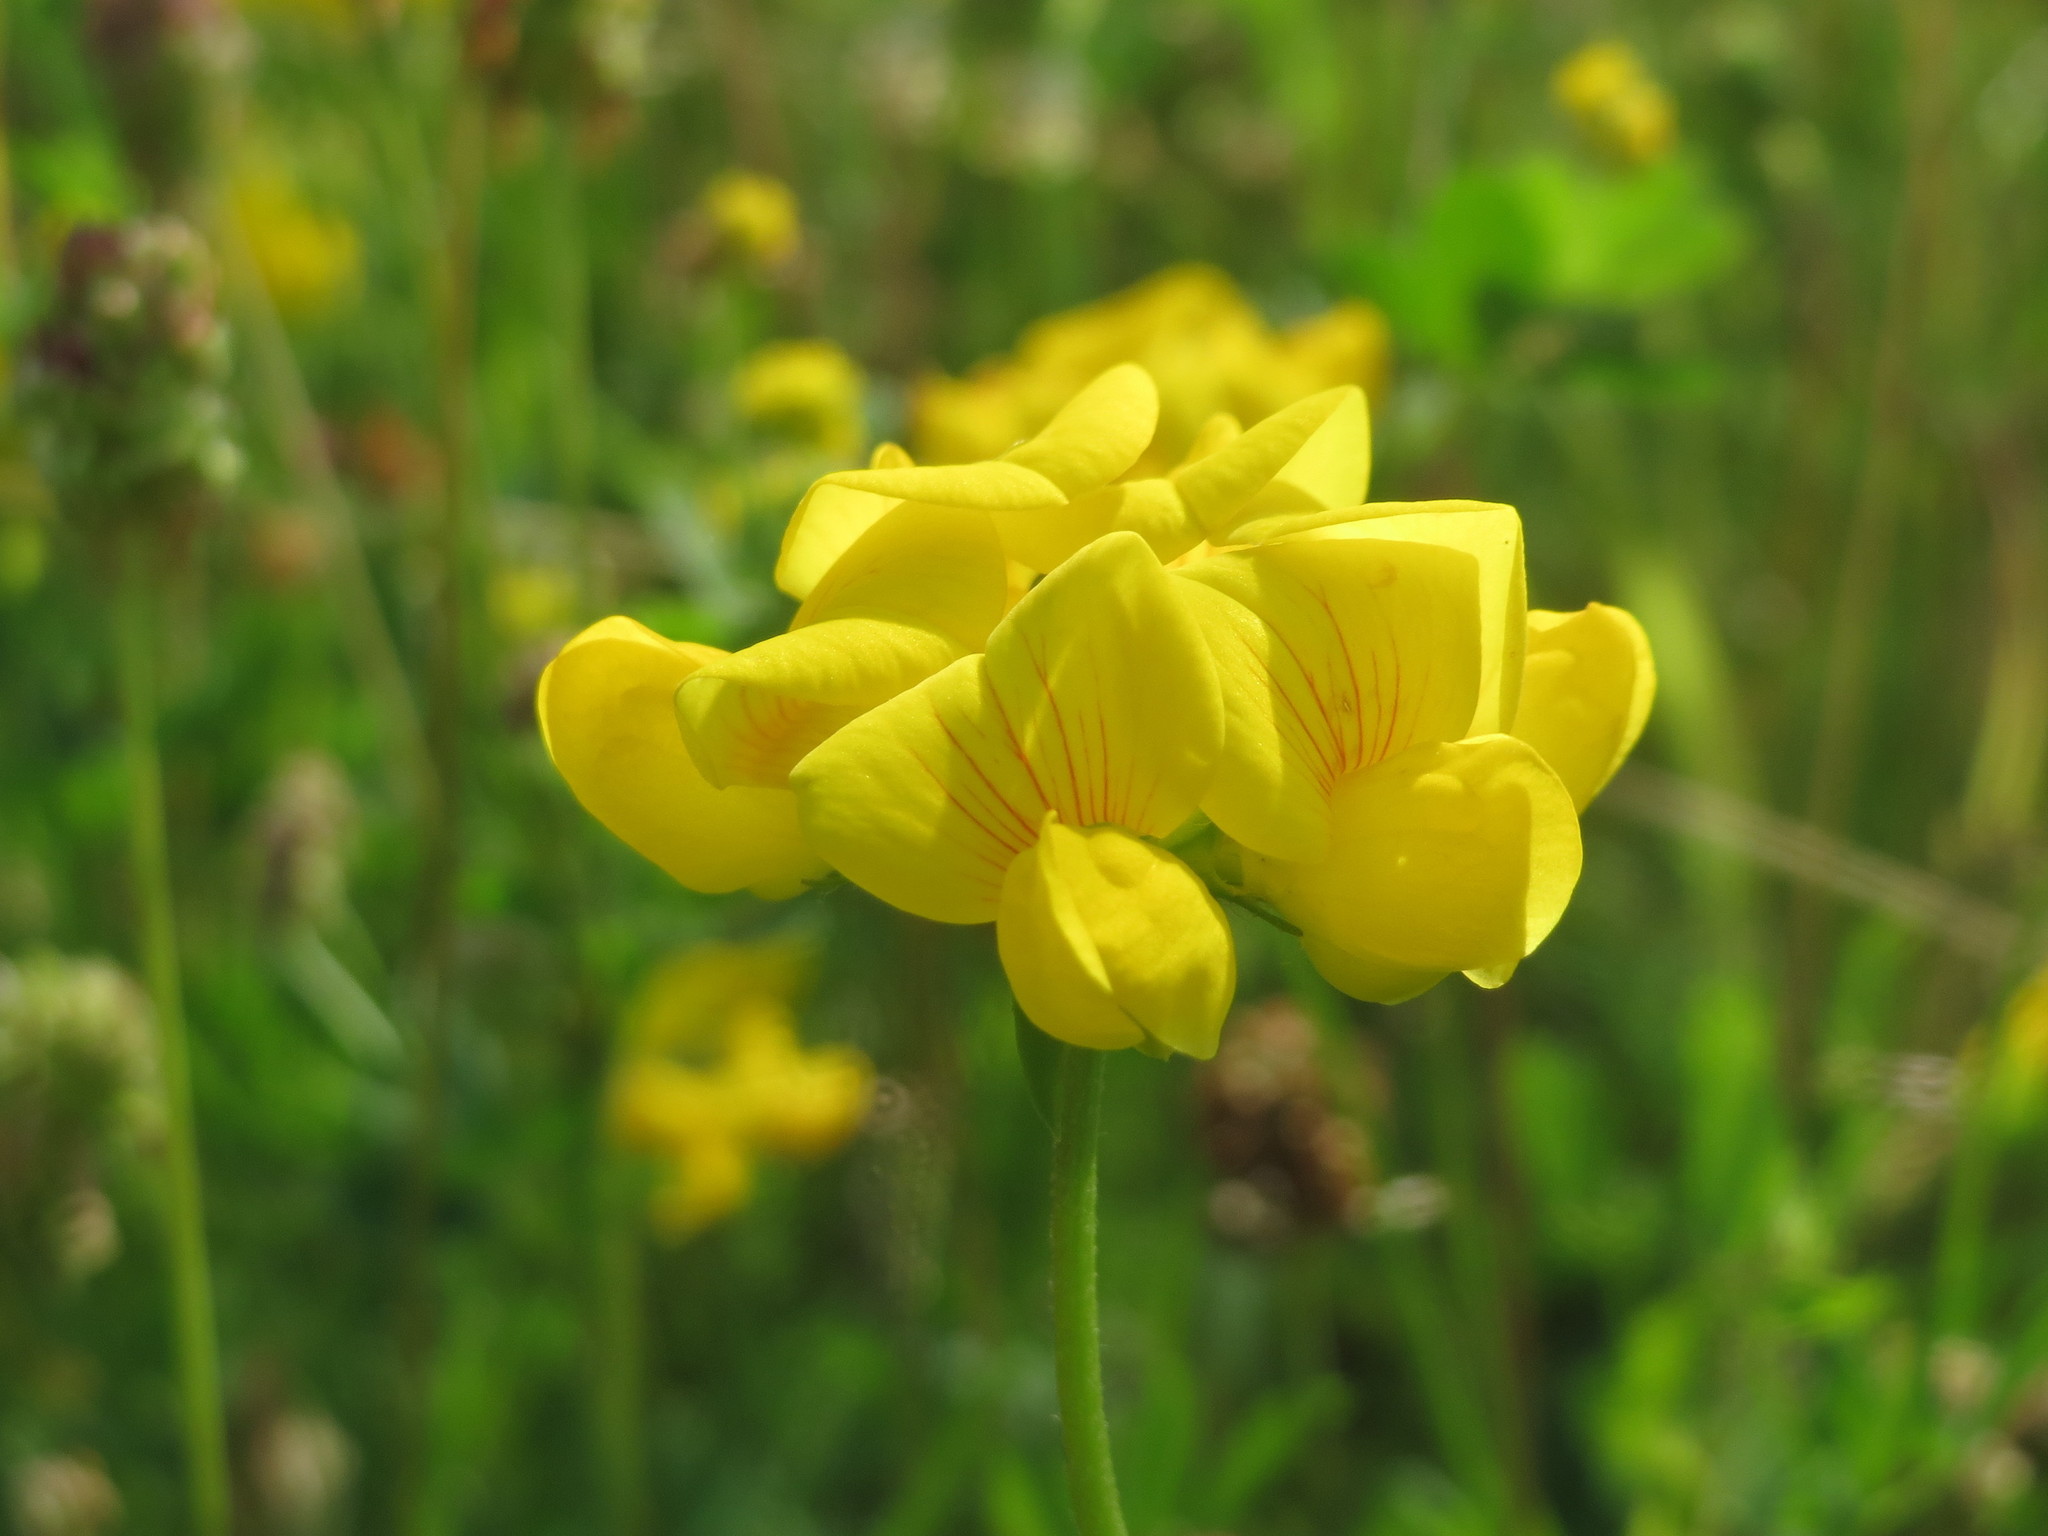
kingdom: Plantae
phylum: Tracheophyta
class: Magnoliopsida
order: Fabales
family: Fabaceae
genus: Lotus
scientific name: Lotus corniculatus
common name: Common bird's-foot-trefoil
